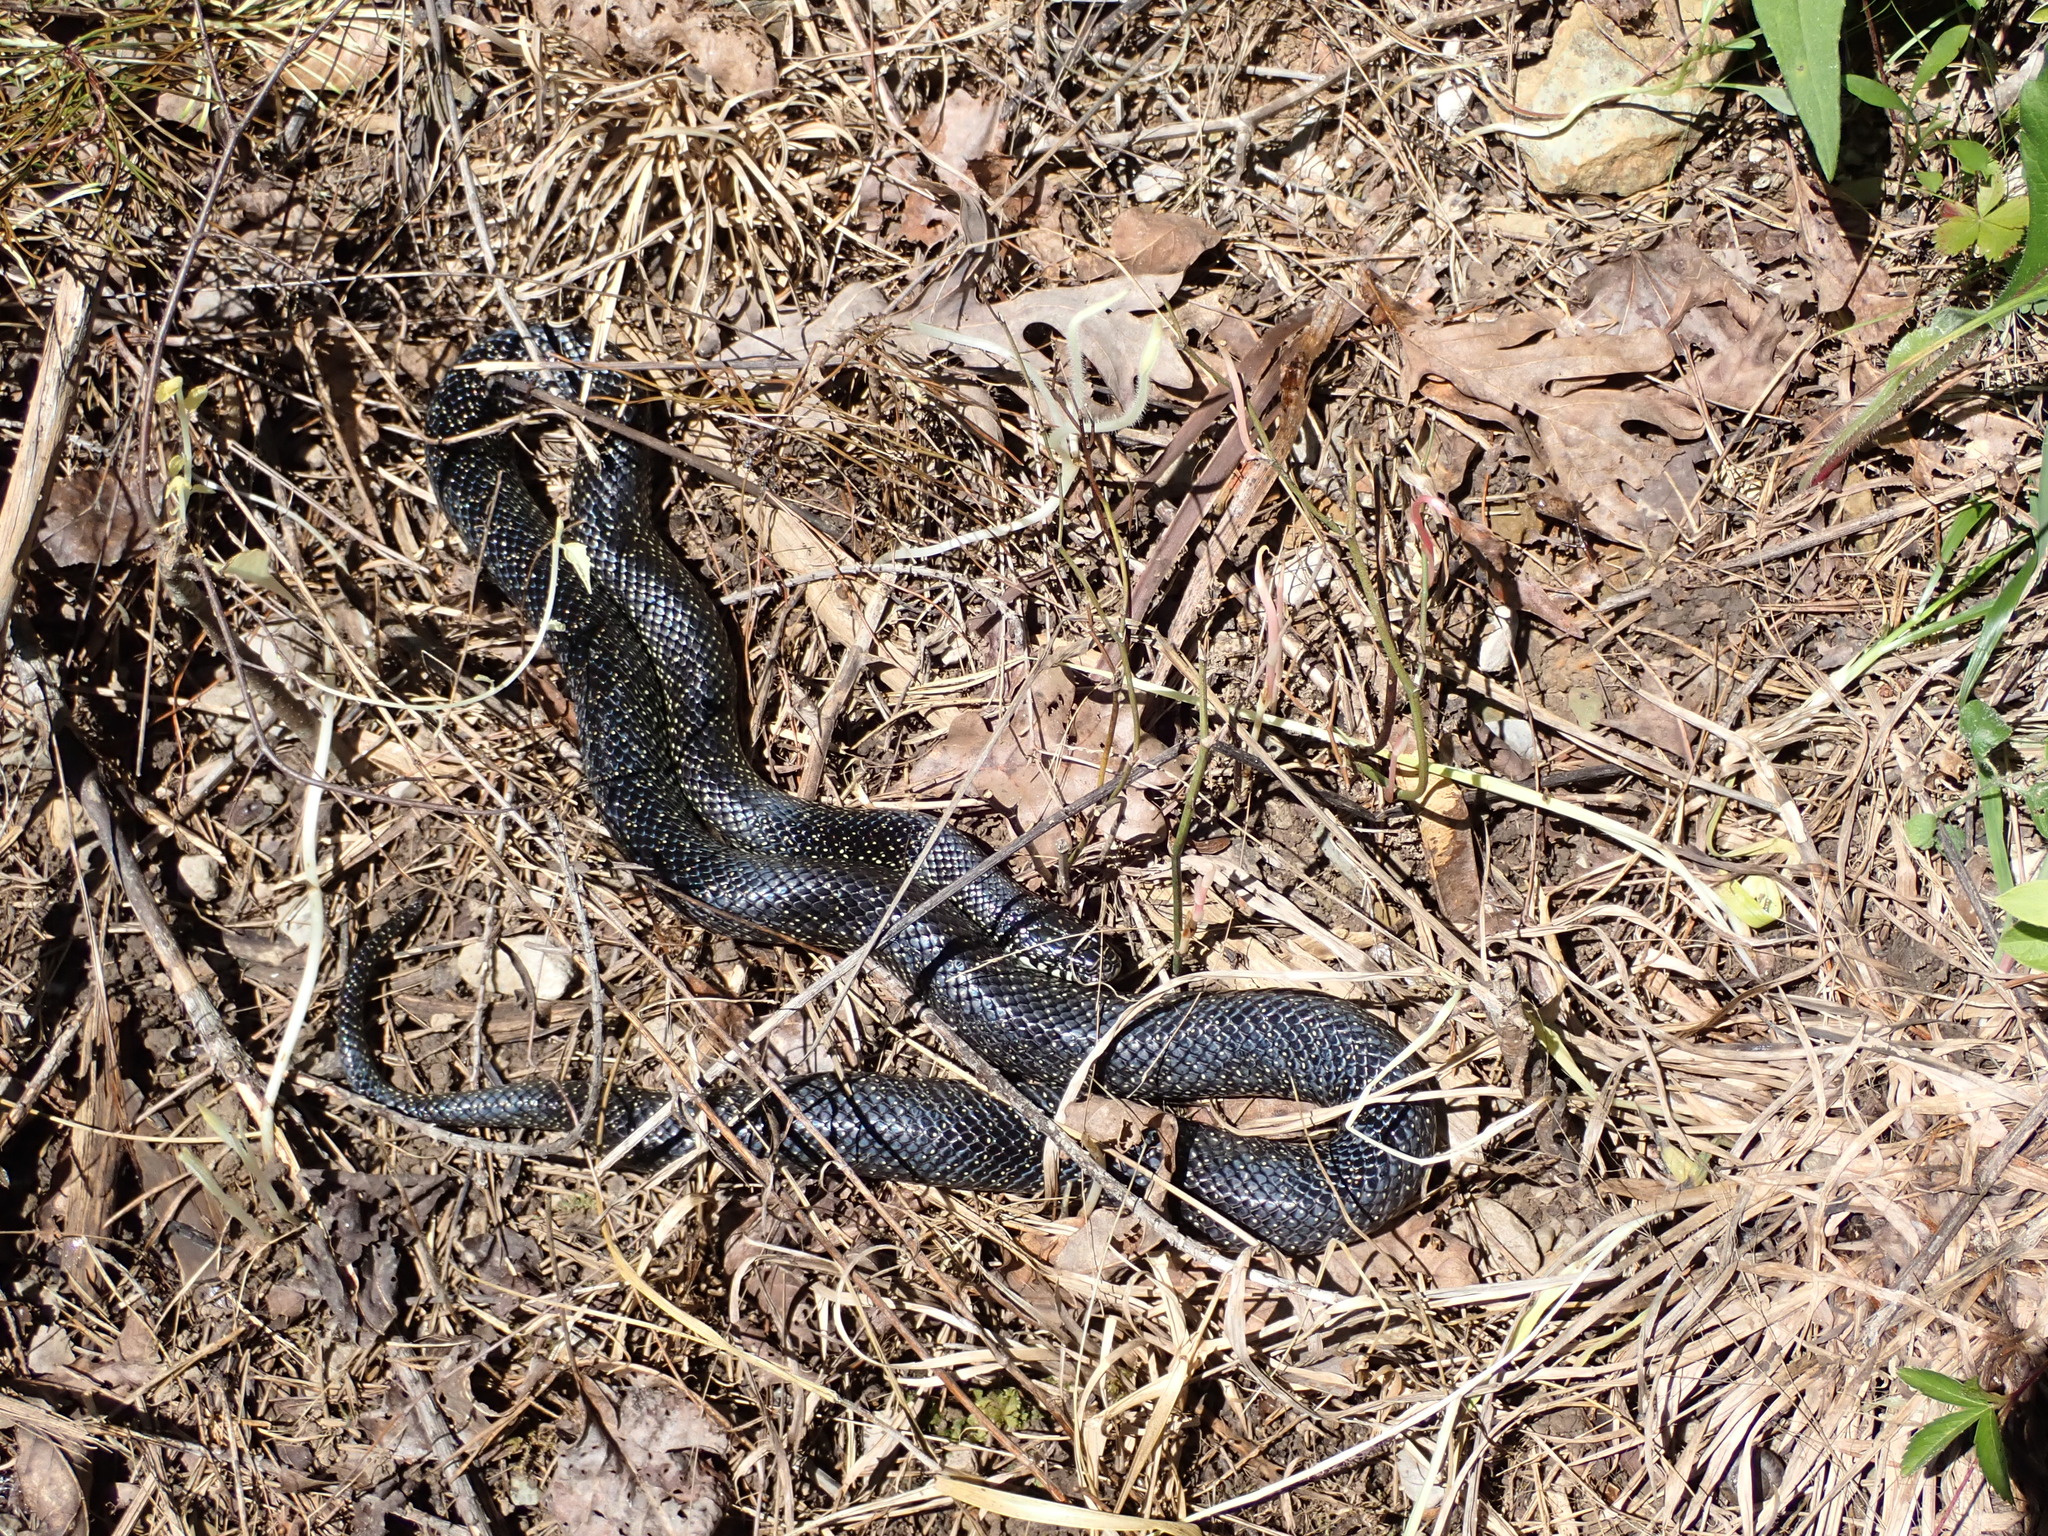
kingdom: Animalia
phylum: Chordata
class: Squamata
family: Colubridae
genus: Lampropeltis
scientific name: Lampropeltis nigra
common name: Black kingsnake
